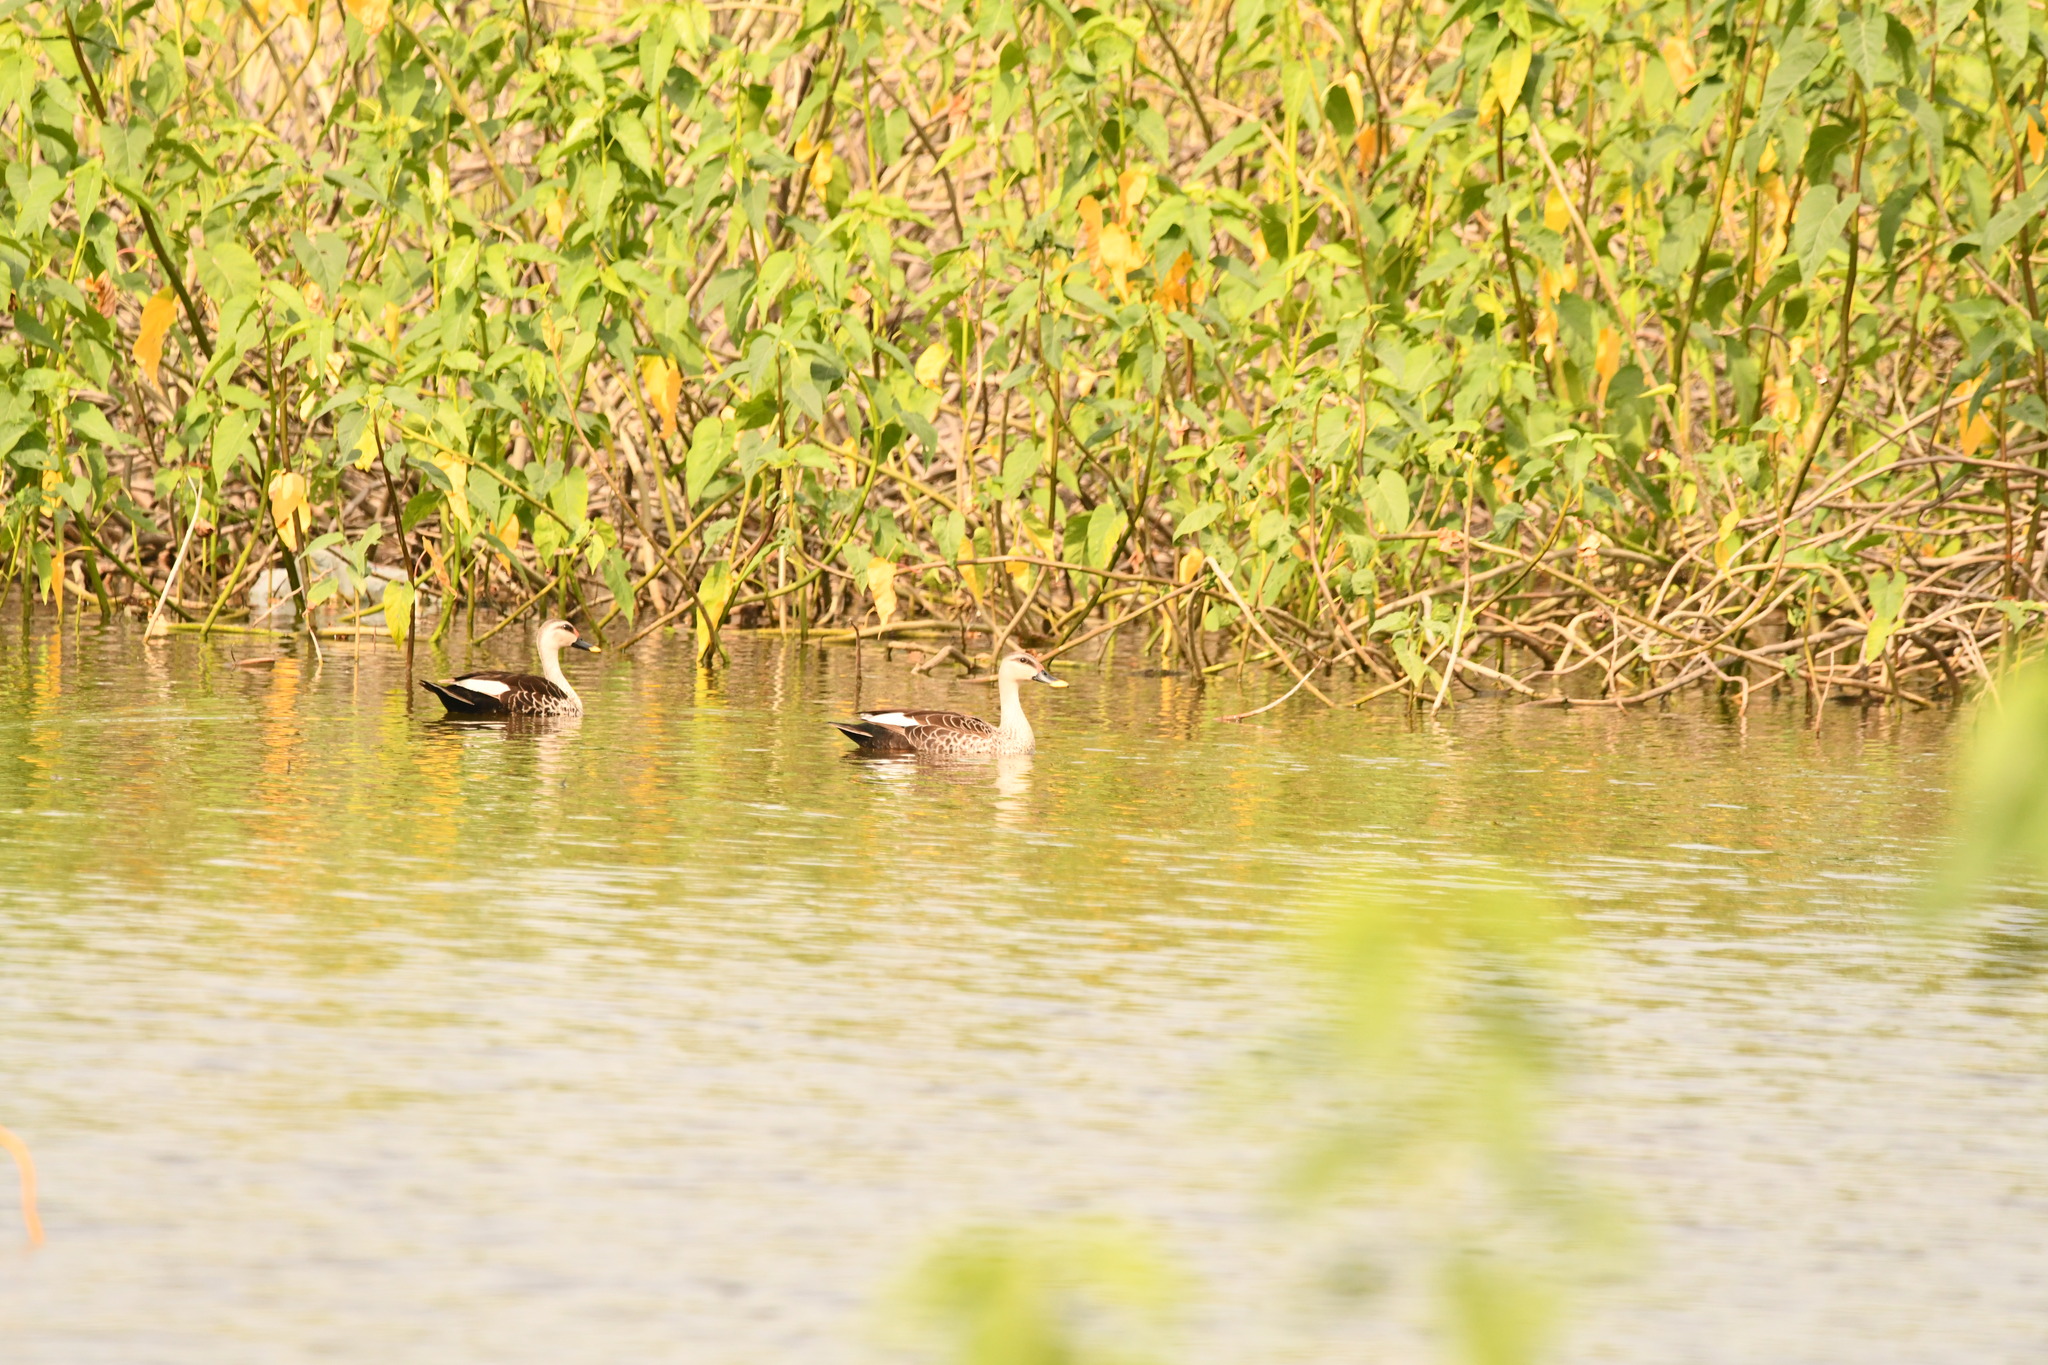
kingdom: Animalia
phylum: Chordata
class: Aves
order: Anseriformes
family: Anatidae
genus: Anas
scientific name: Anas poecilorhyncha
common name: Indian spot-billed duck
